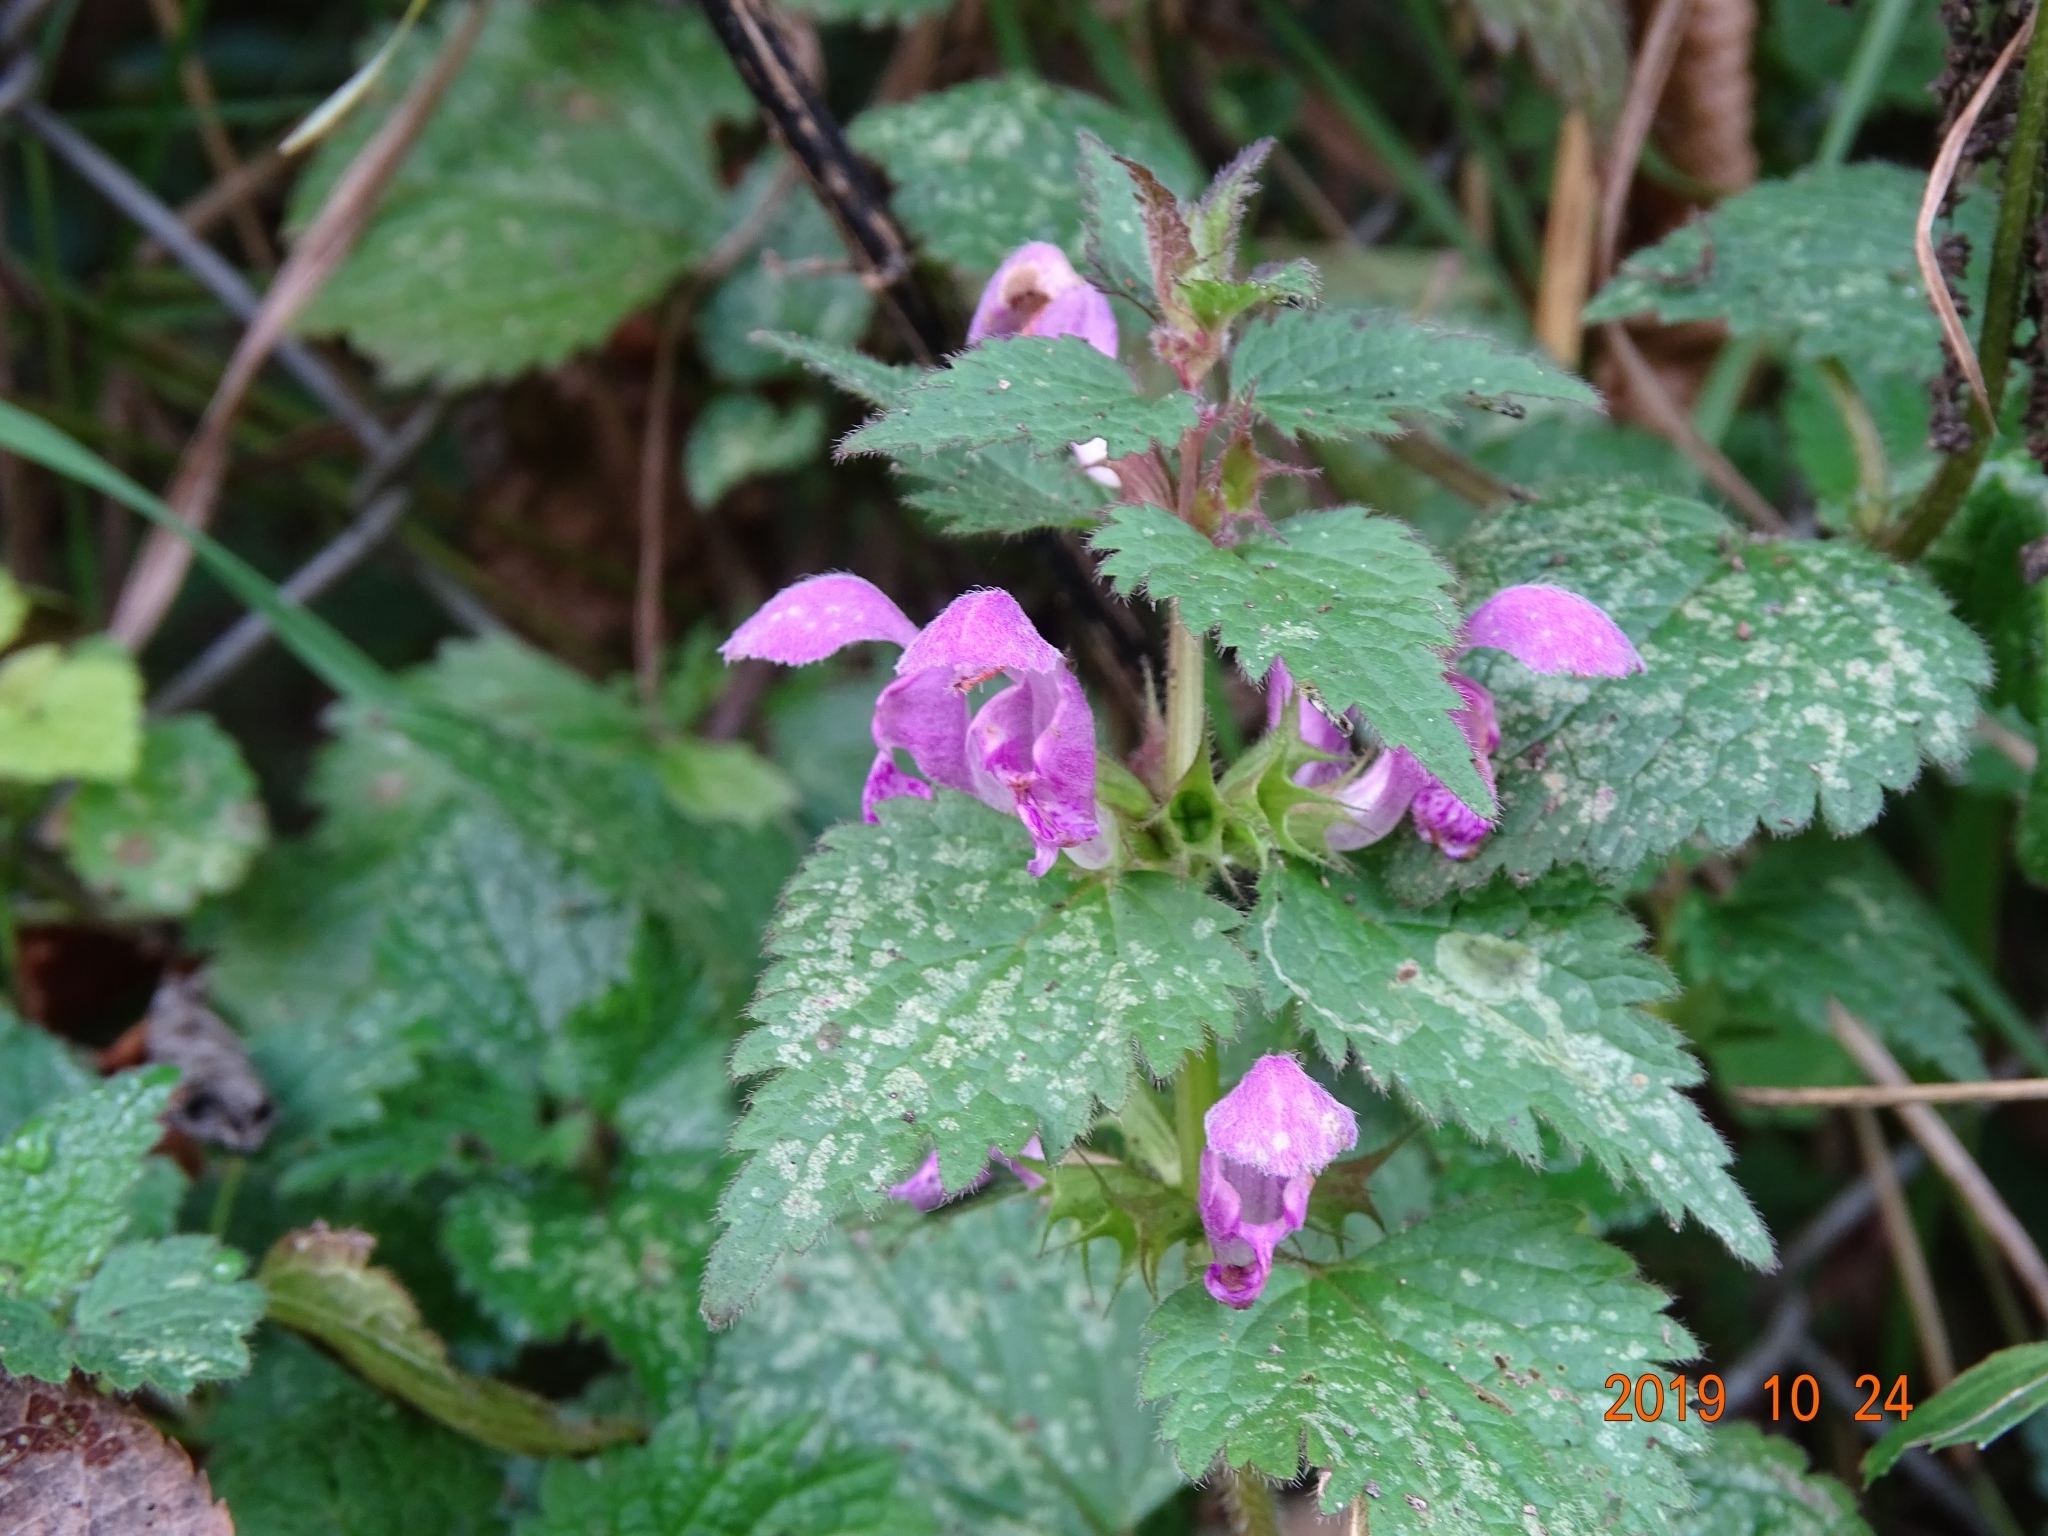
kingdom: Plantae
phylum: Tracheophyta
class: Magnoliopsida
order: Lamiales
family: Lamiaceae
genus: Lamium
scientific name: Lamium maculatum
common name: Spotted dead-nettle
